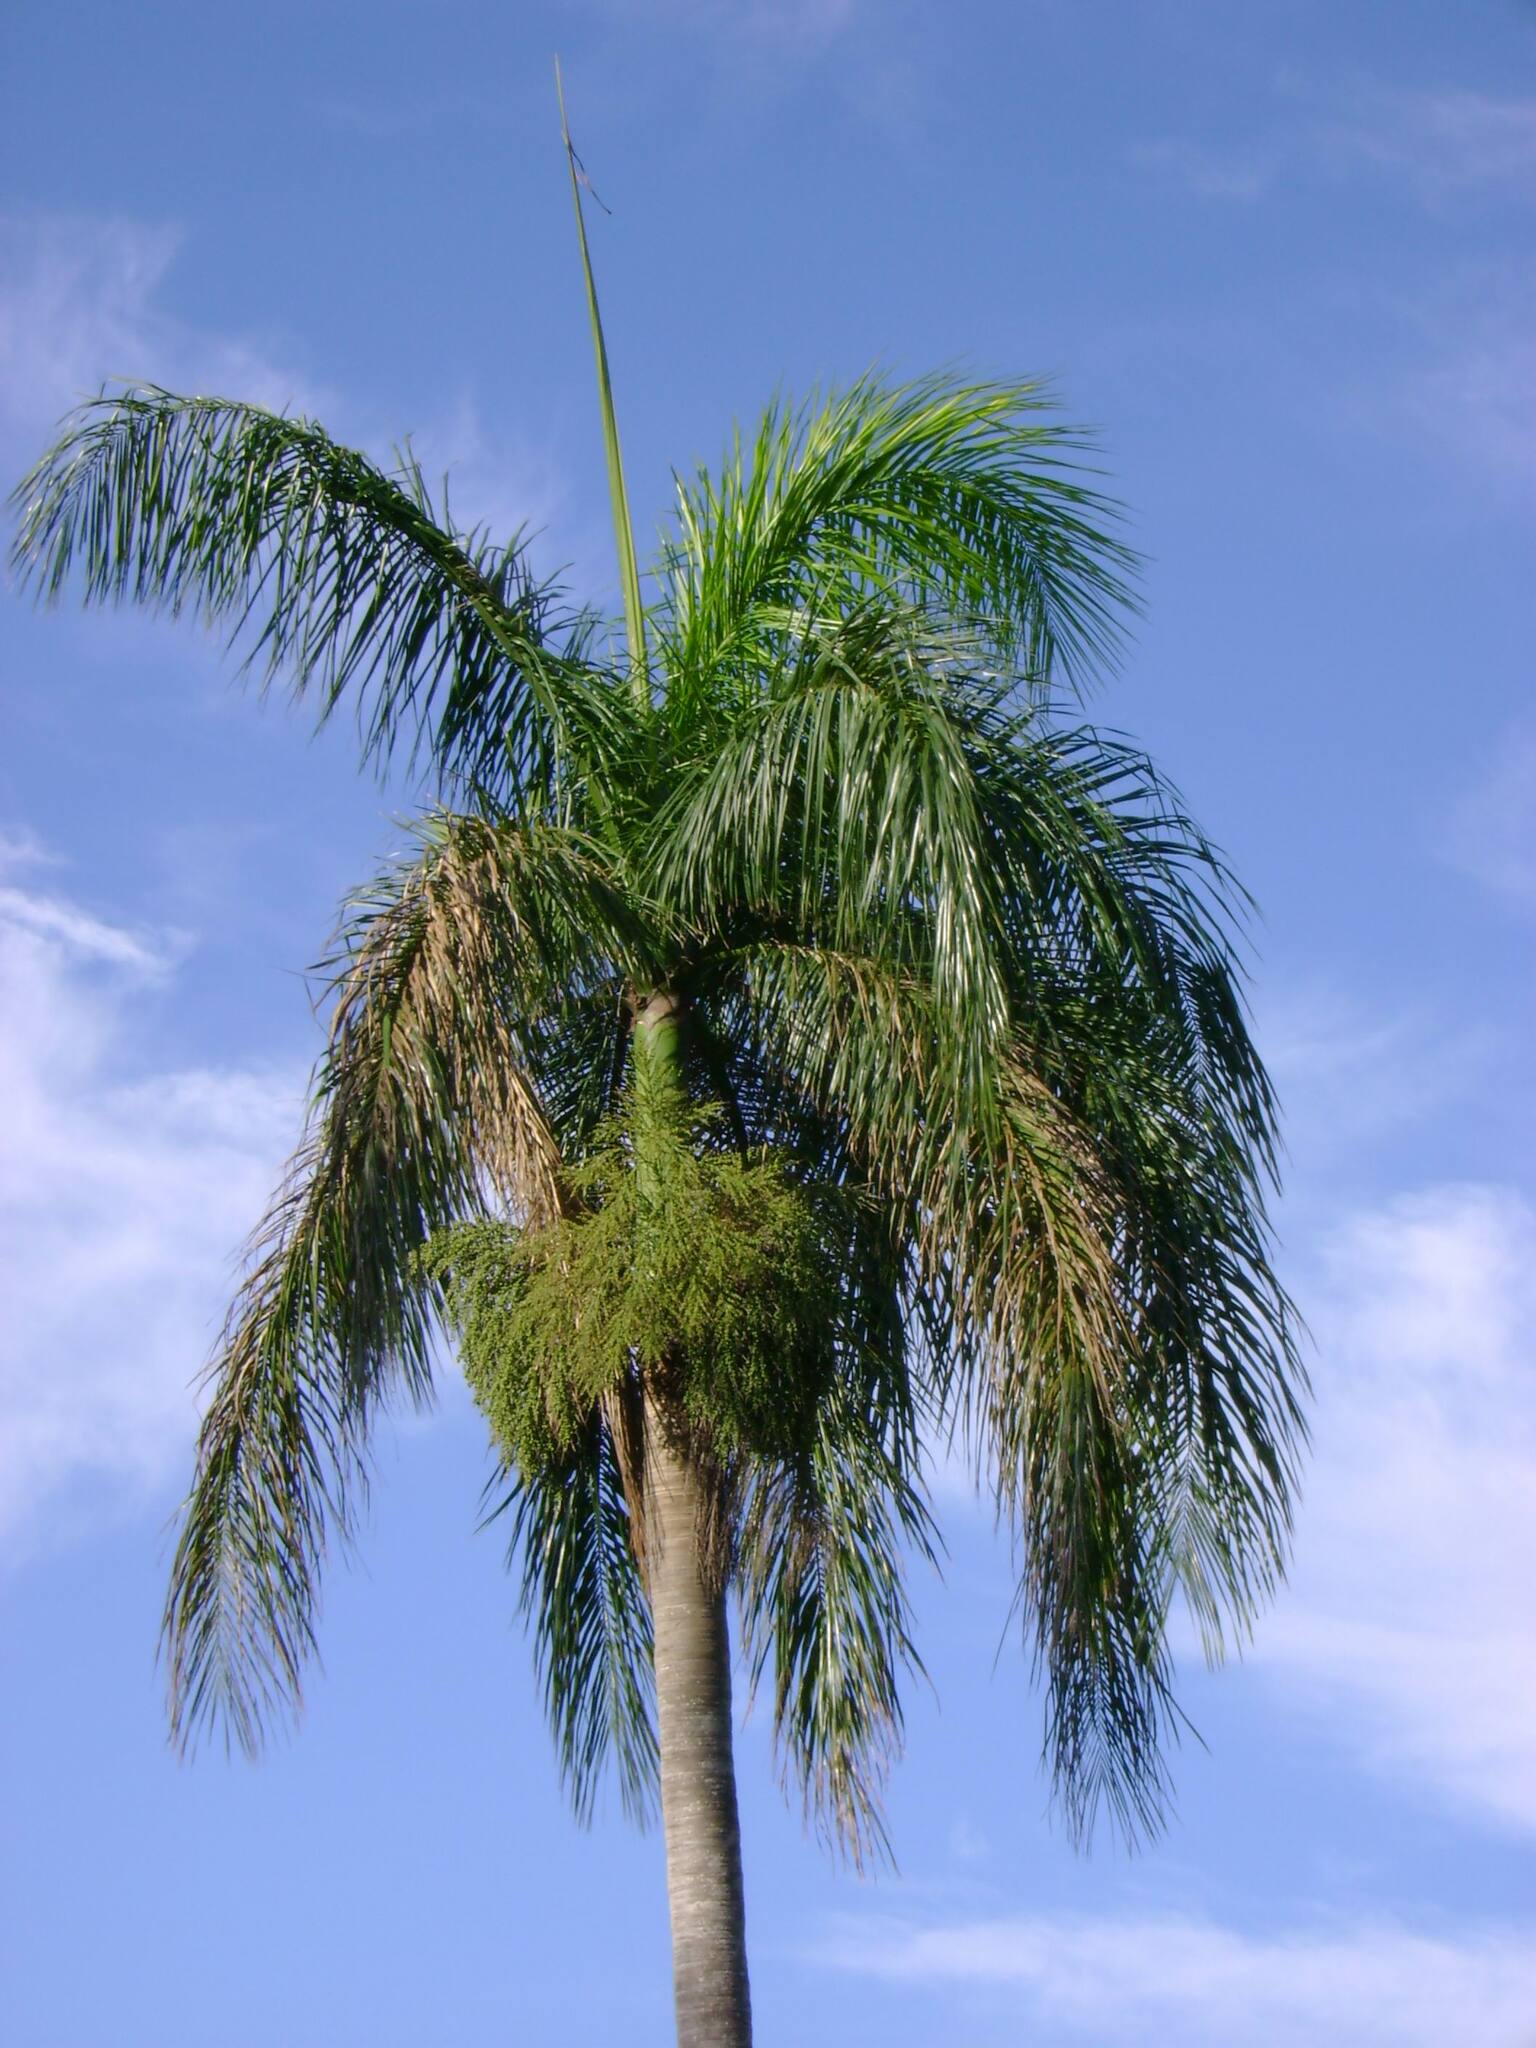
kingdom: Plantae
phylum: Tracheophyta
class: Liliopsida
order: Arecales
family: Arecaceae
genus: Roystonea
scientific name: Roystonea borinquena
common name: Puerto rican royal palm
